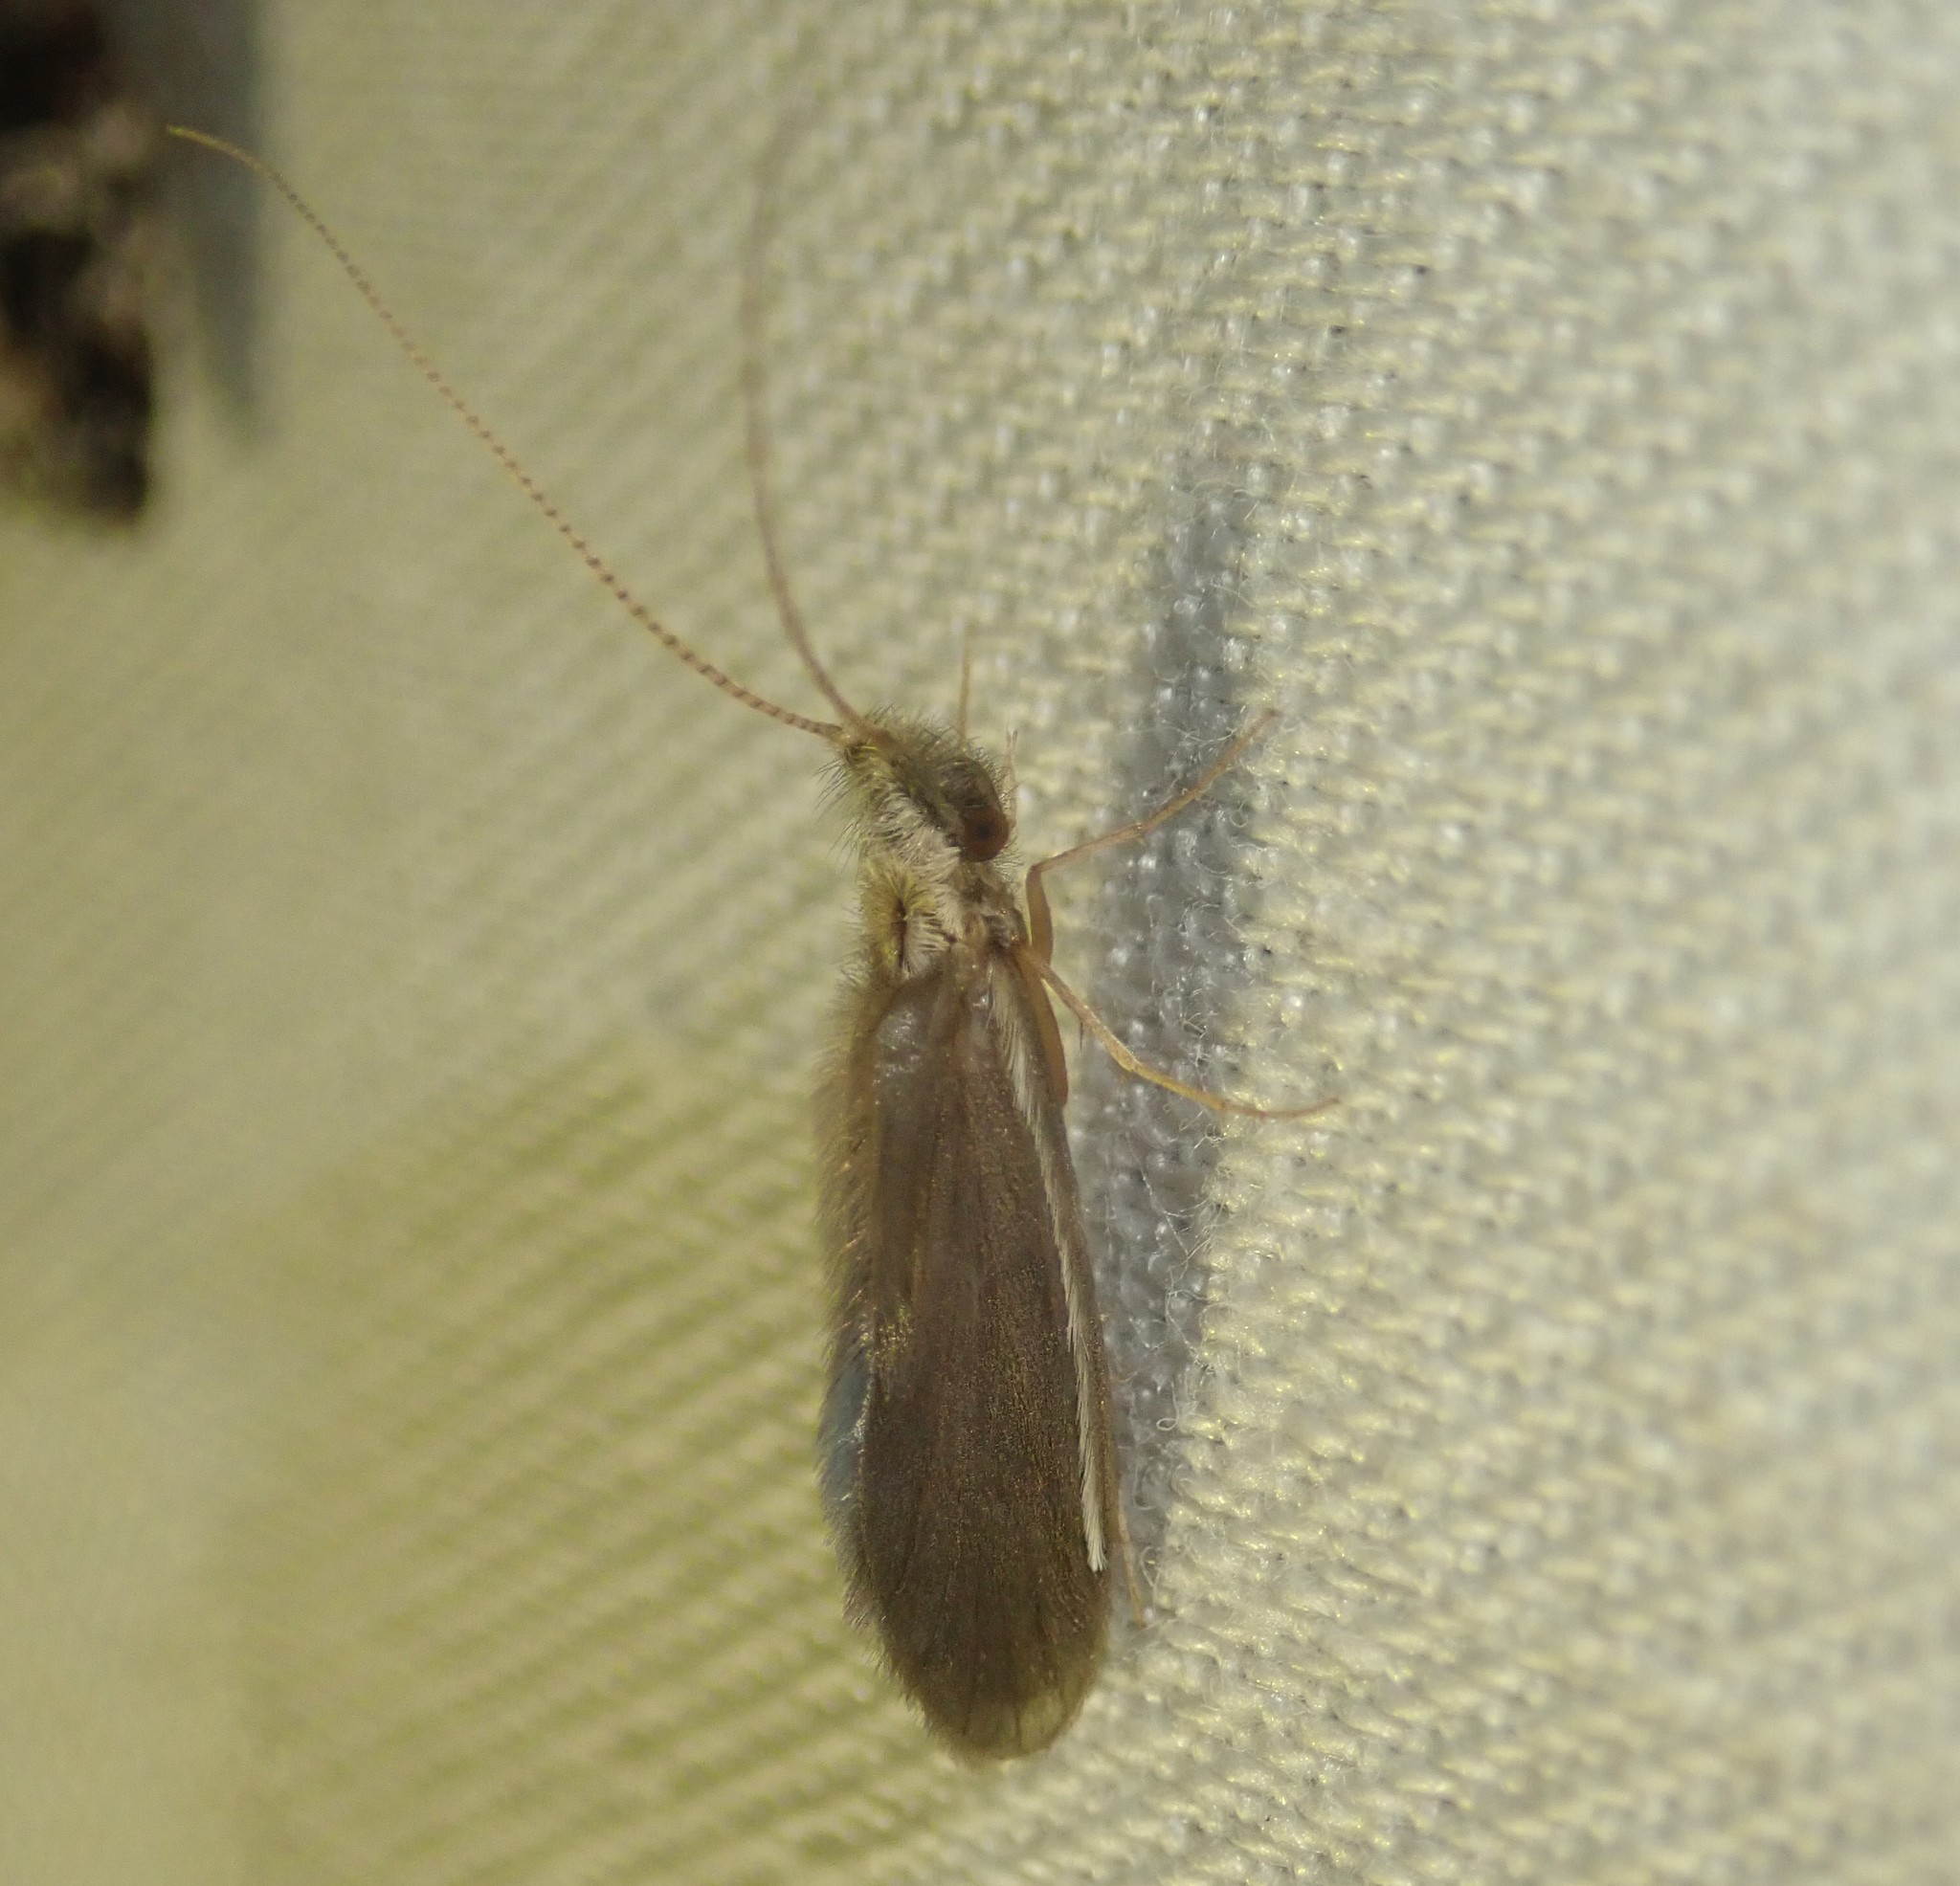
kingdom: Animalia
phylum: Arthropoda
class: Insecta
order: Trichoptera
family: Lepidostomatidae
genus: Lasiocephala
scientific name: Lasiocephala basalis
